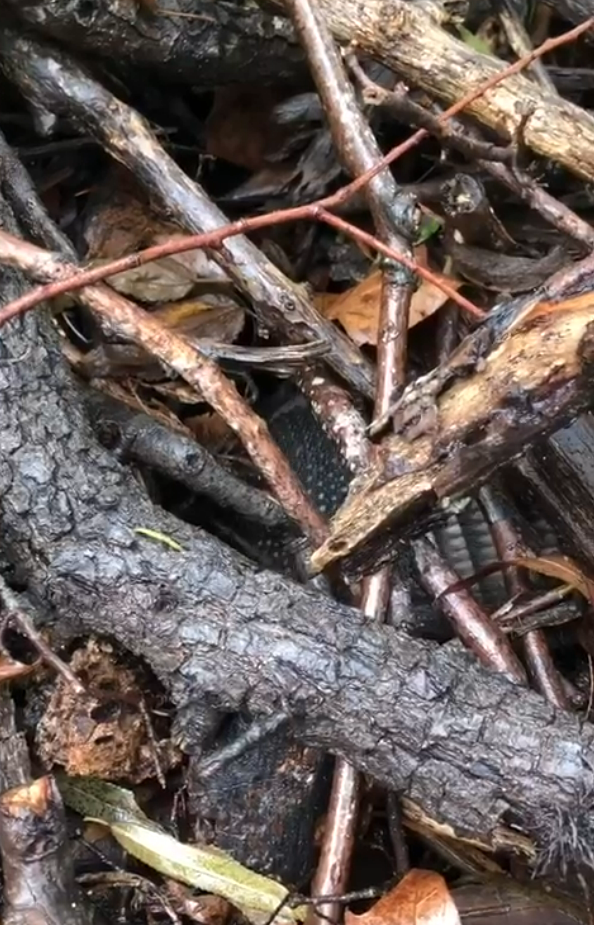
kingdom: Animalia
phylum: Chordata
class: Mammalia
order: Cingulata
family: Dasypodidae
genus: Dasypus
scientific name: Dasypus novemcinctus
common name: Nine-banded armadillo
